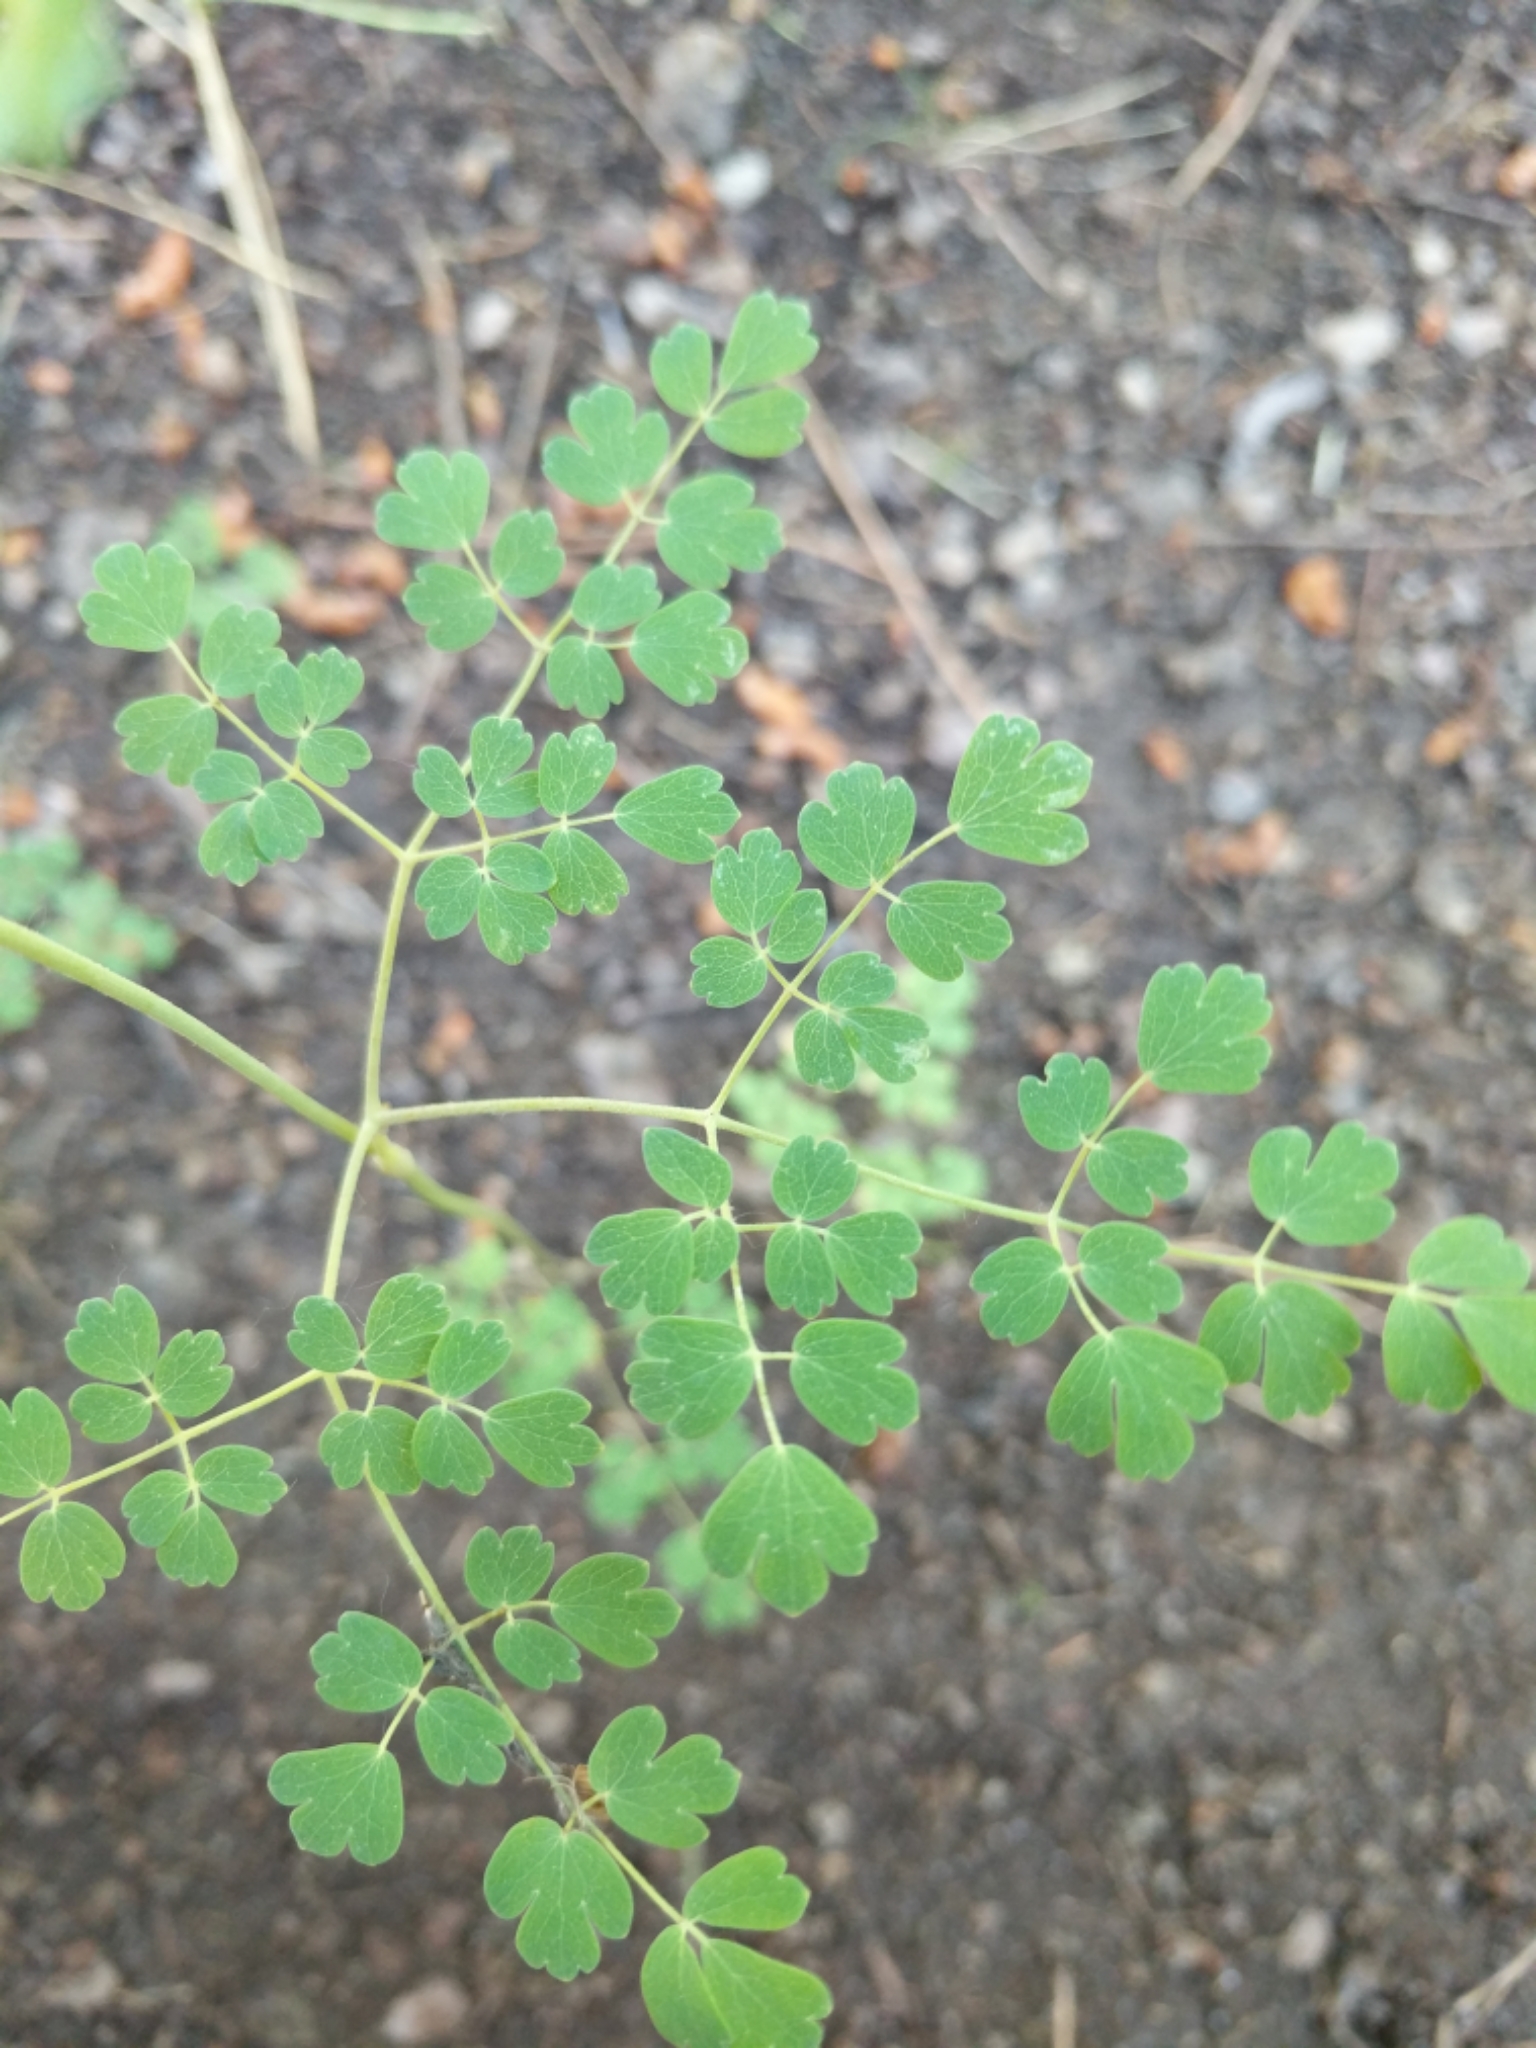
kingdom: Plantae
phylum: Tracheophyta
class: Magnoliopsida
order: Ranunculales
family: Ranunculaceae
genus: Thalictrum
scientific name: Thalictrum fendleri
